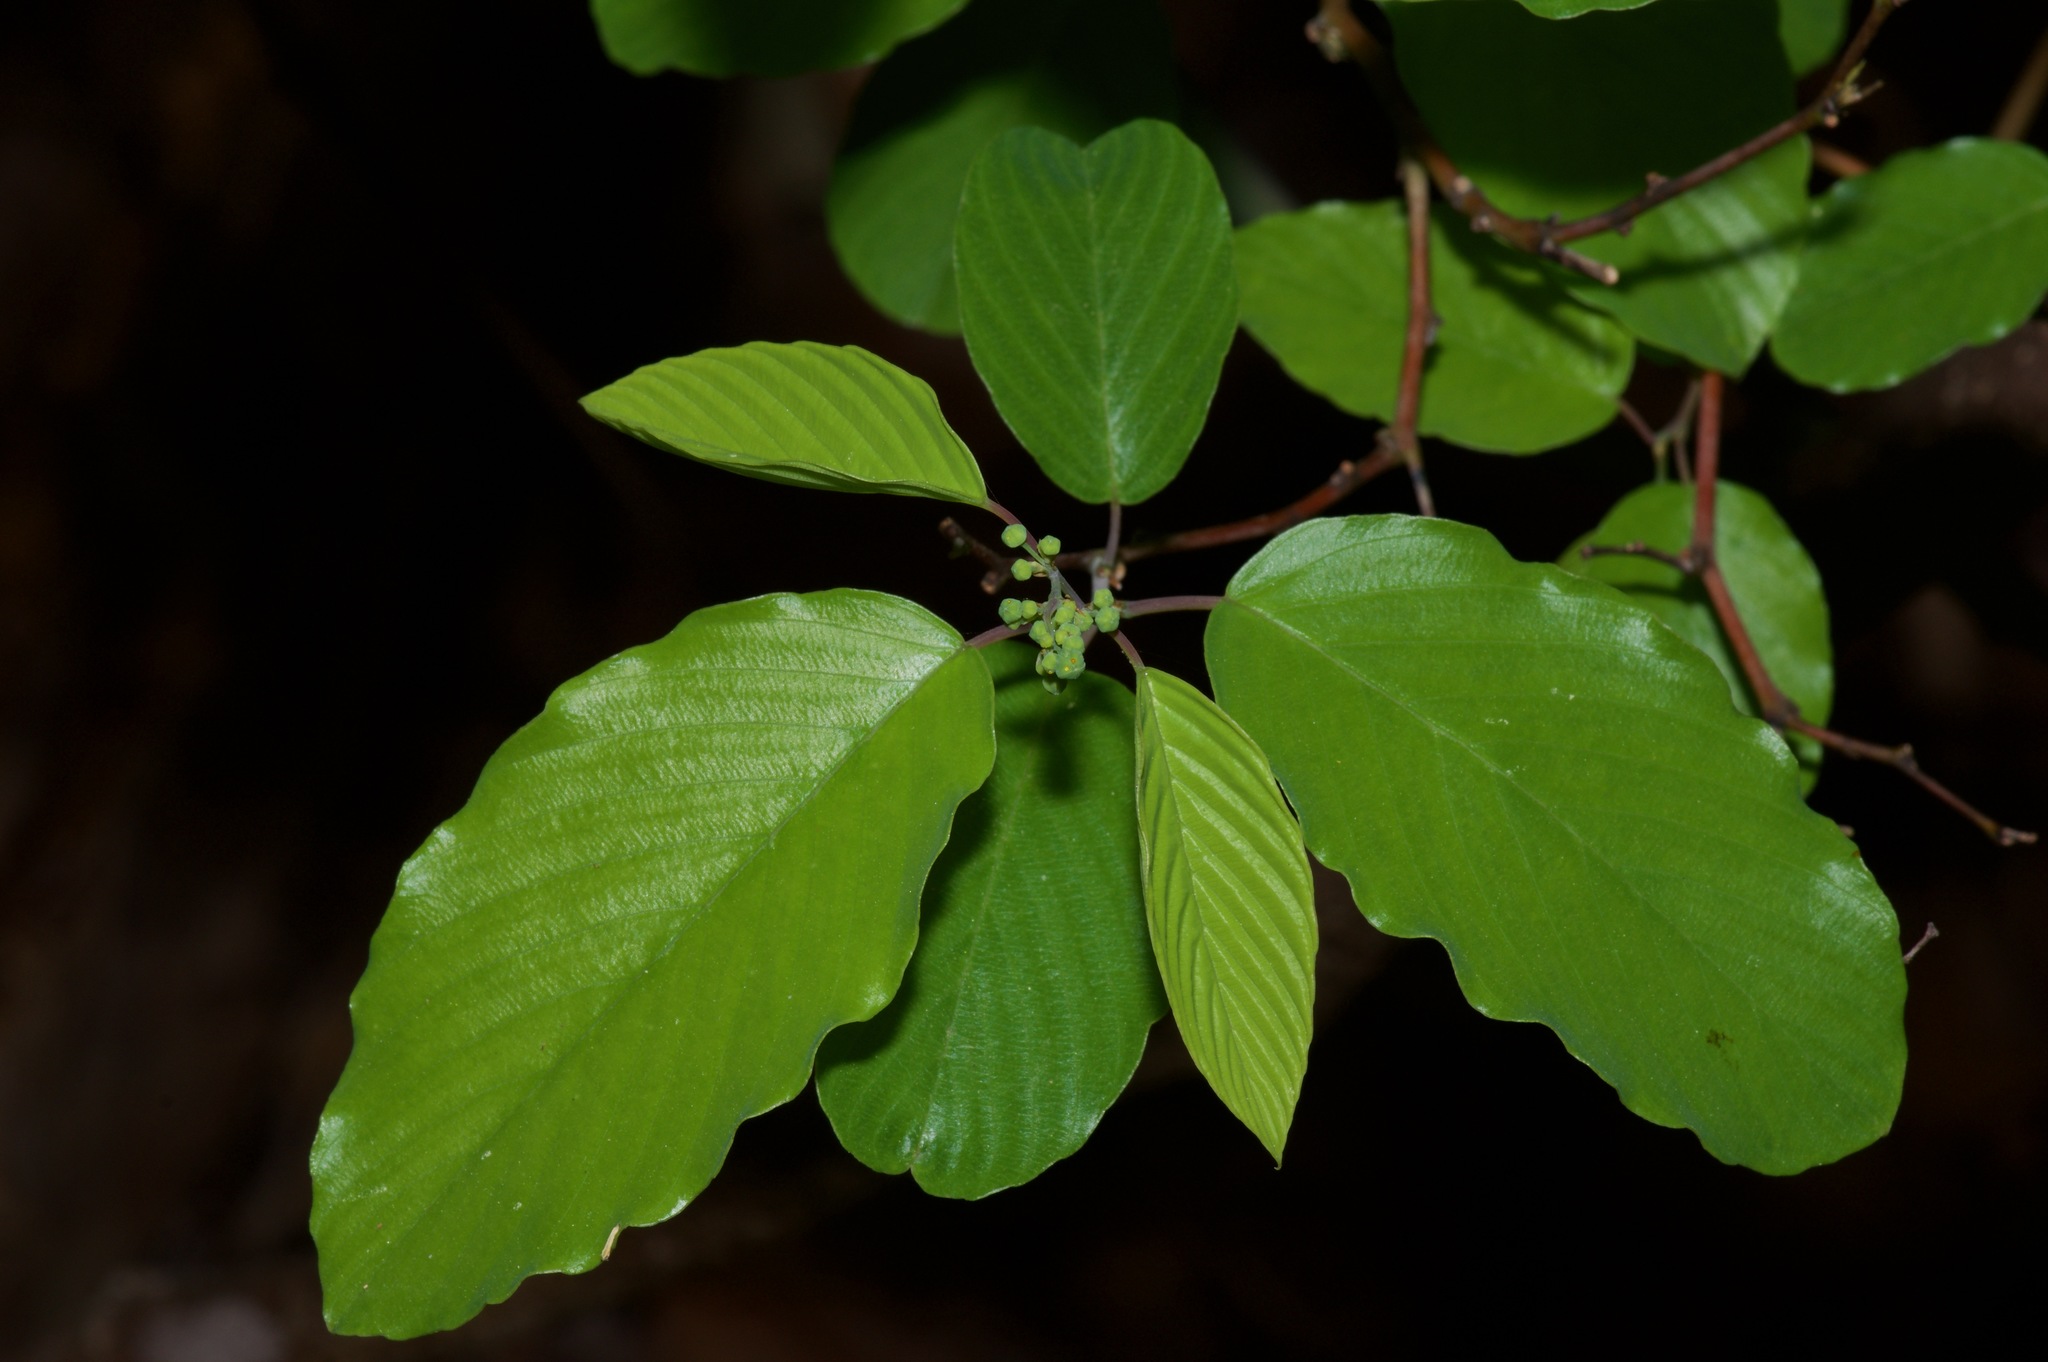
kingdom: Plantae
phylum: Tracheophyta
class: Magnoliopsida
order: Rosales
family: Rhamnaceae
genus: Berchemia
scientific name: Berchemia scandens
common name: Supplejack
